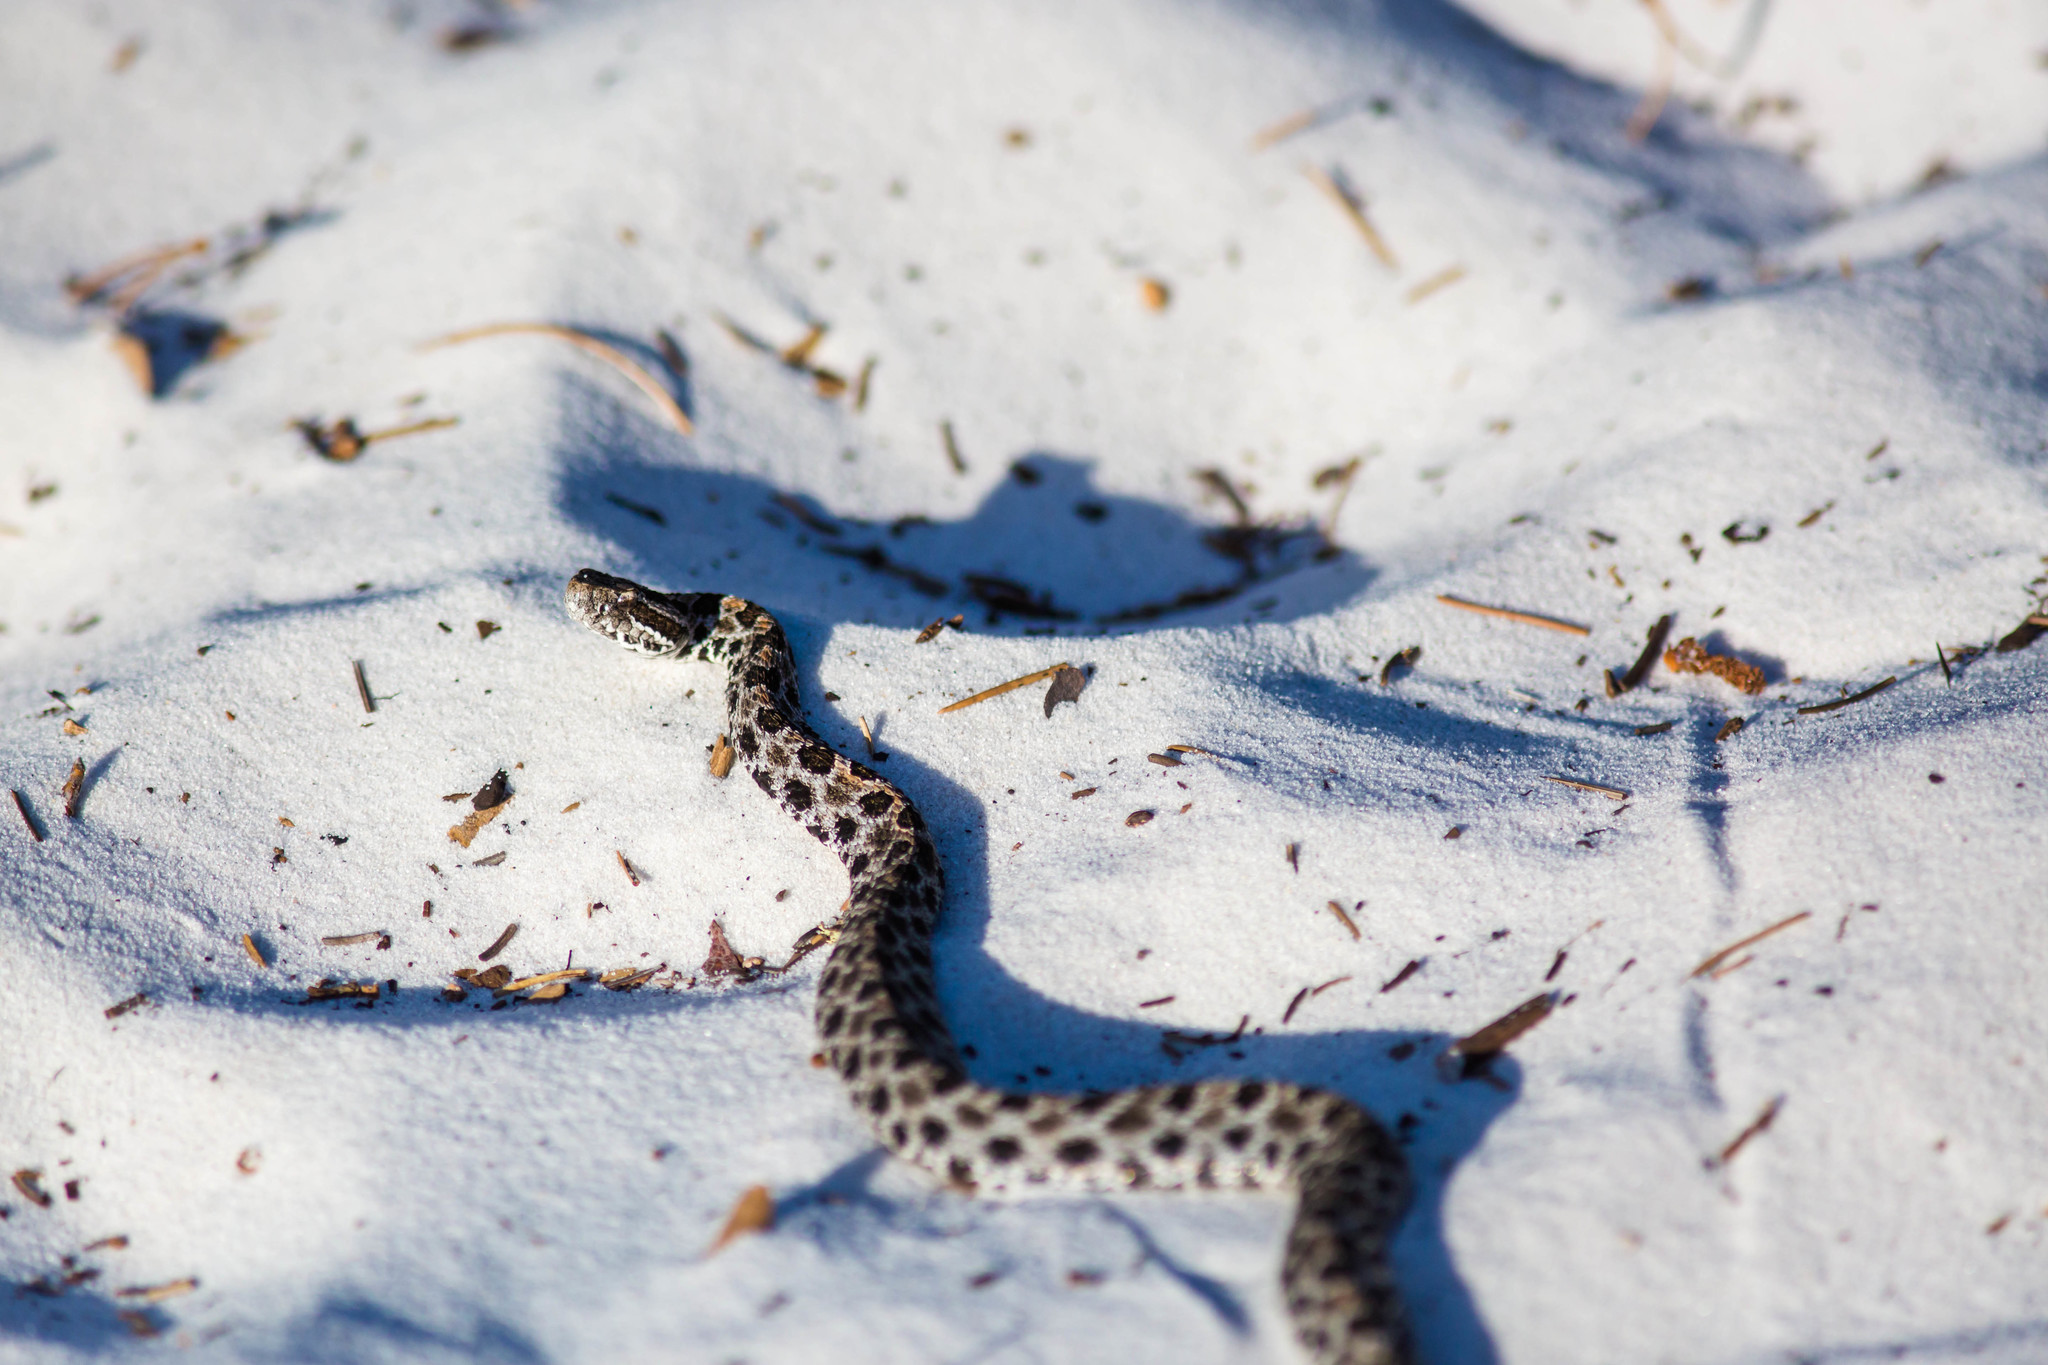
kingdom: Animalia
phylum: Chordata
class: Squamata
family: Viperidae
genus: Sistrurus
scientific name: Sistrurus miliarius
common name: Pygmy rattlesnake
